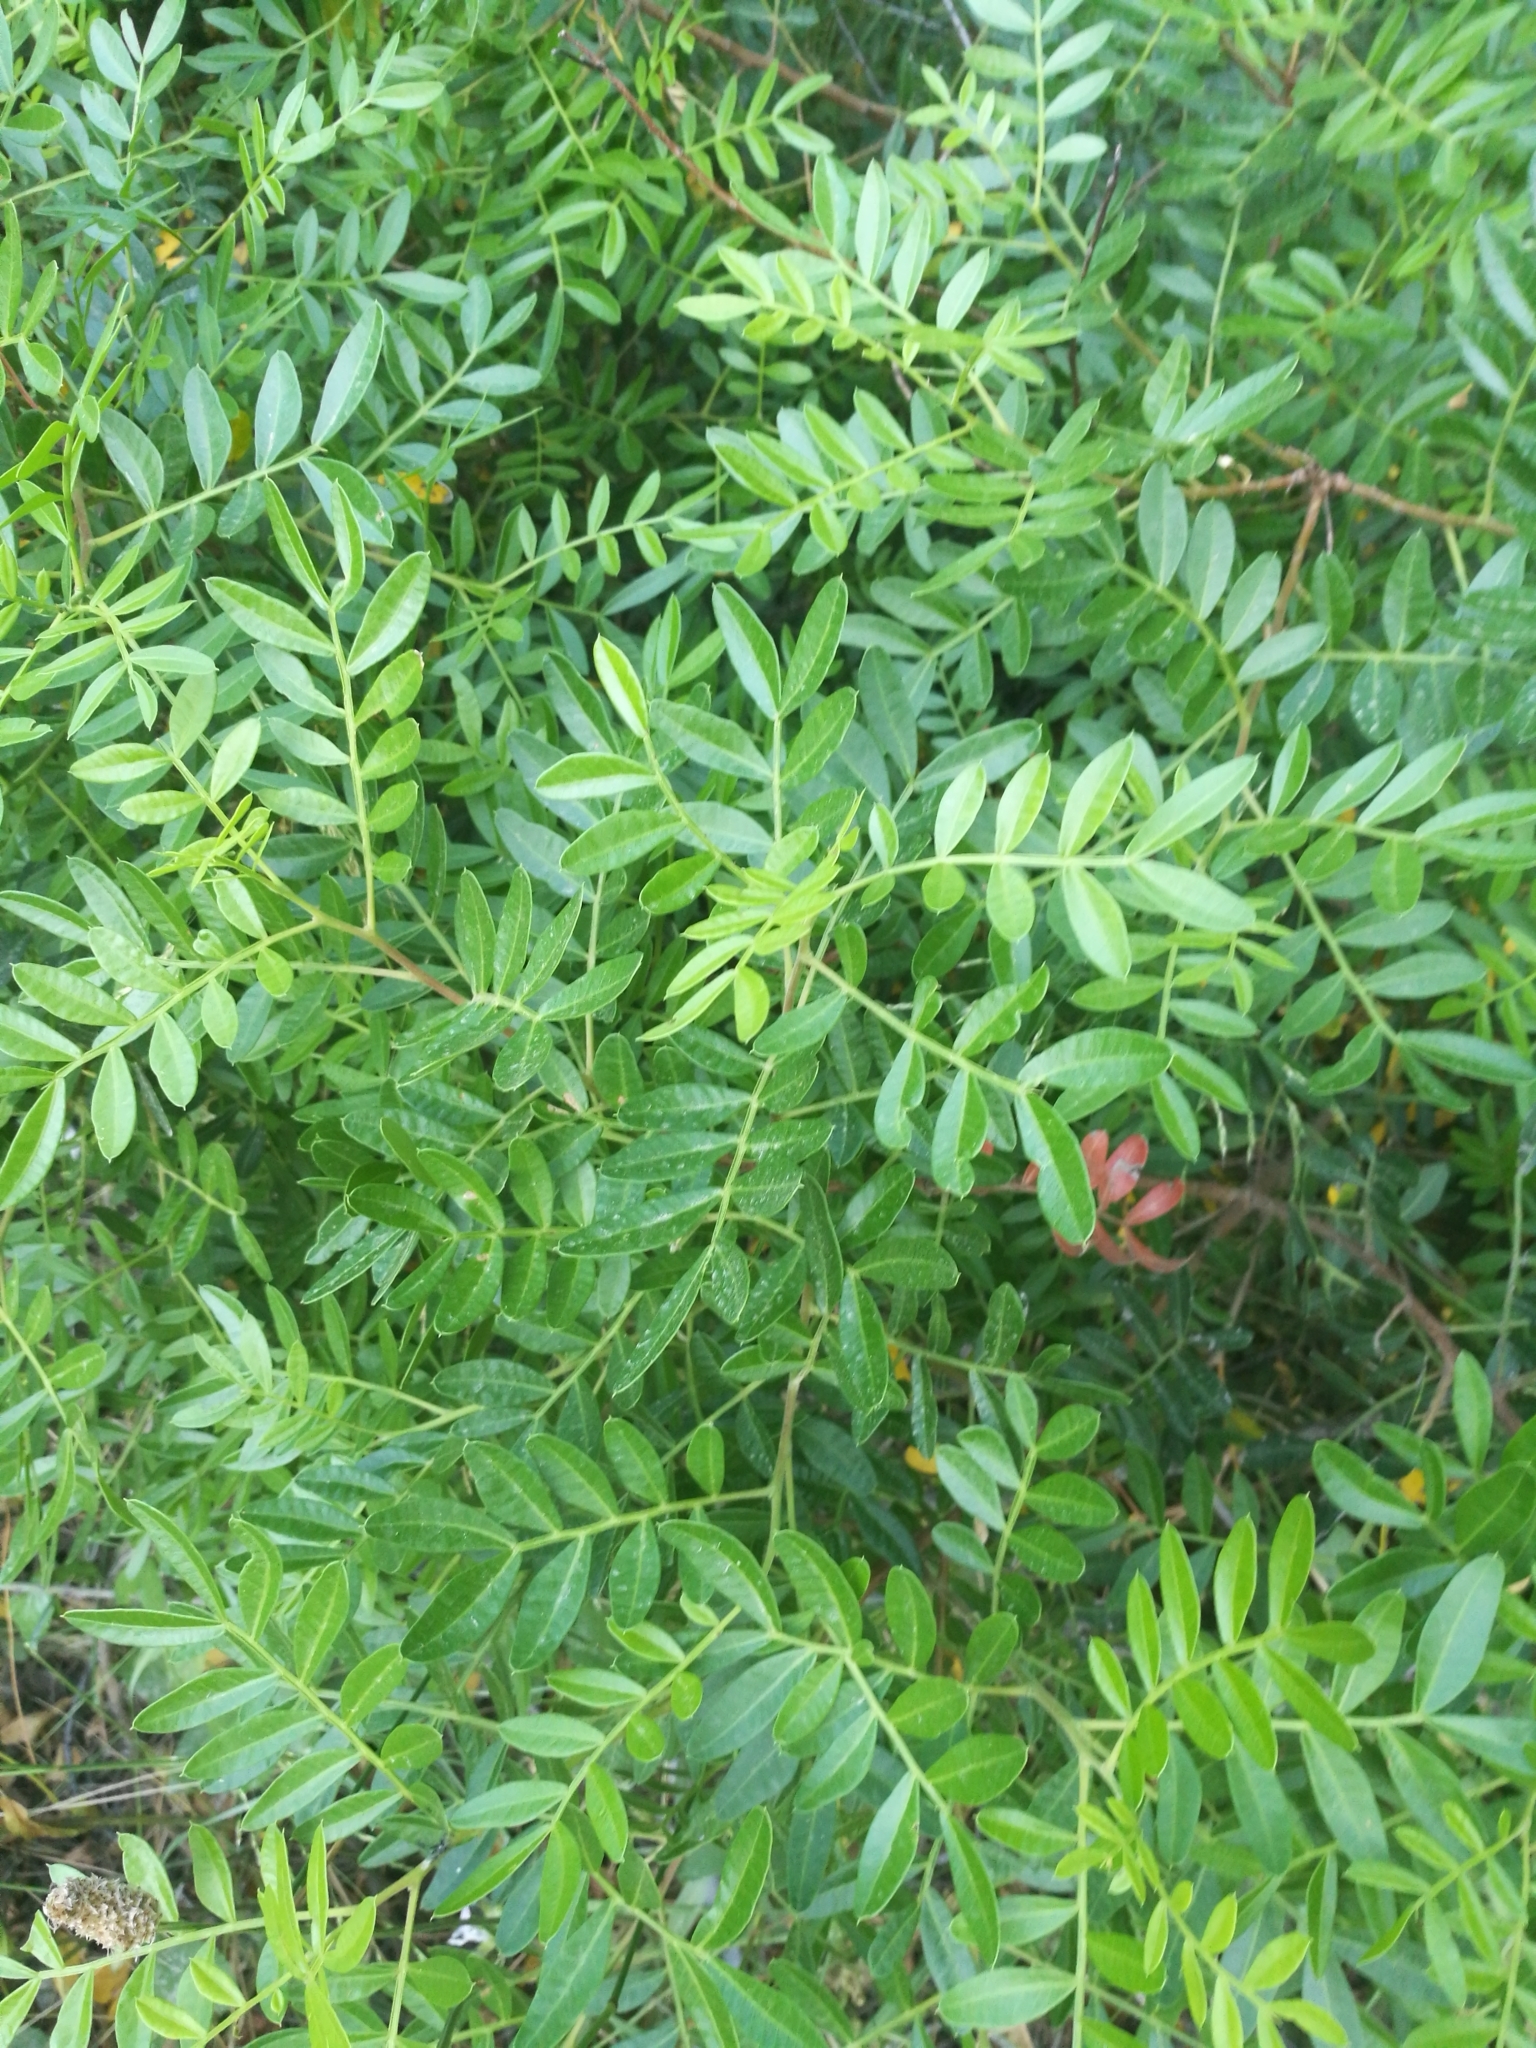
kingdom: Plantae
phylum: Tracheophyta
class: Magnoliopsida
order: Sapindales
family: Anacardiaceae
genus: Pistacia
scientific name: Pistacia lentiscus
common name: Lentisk
